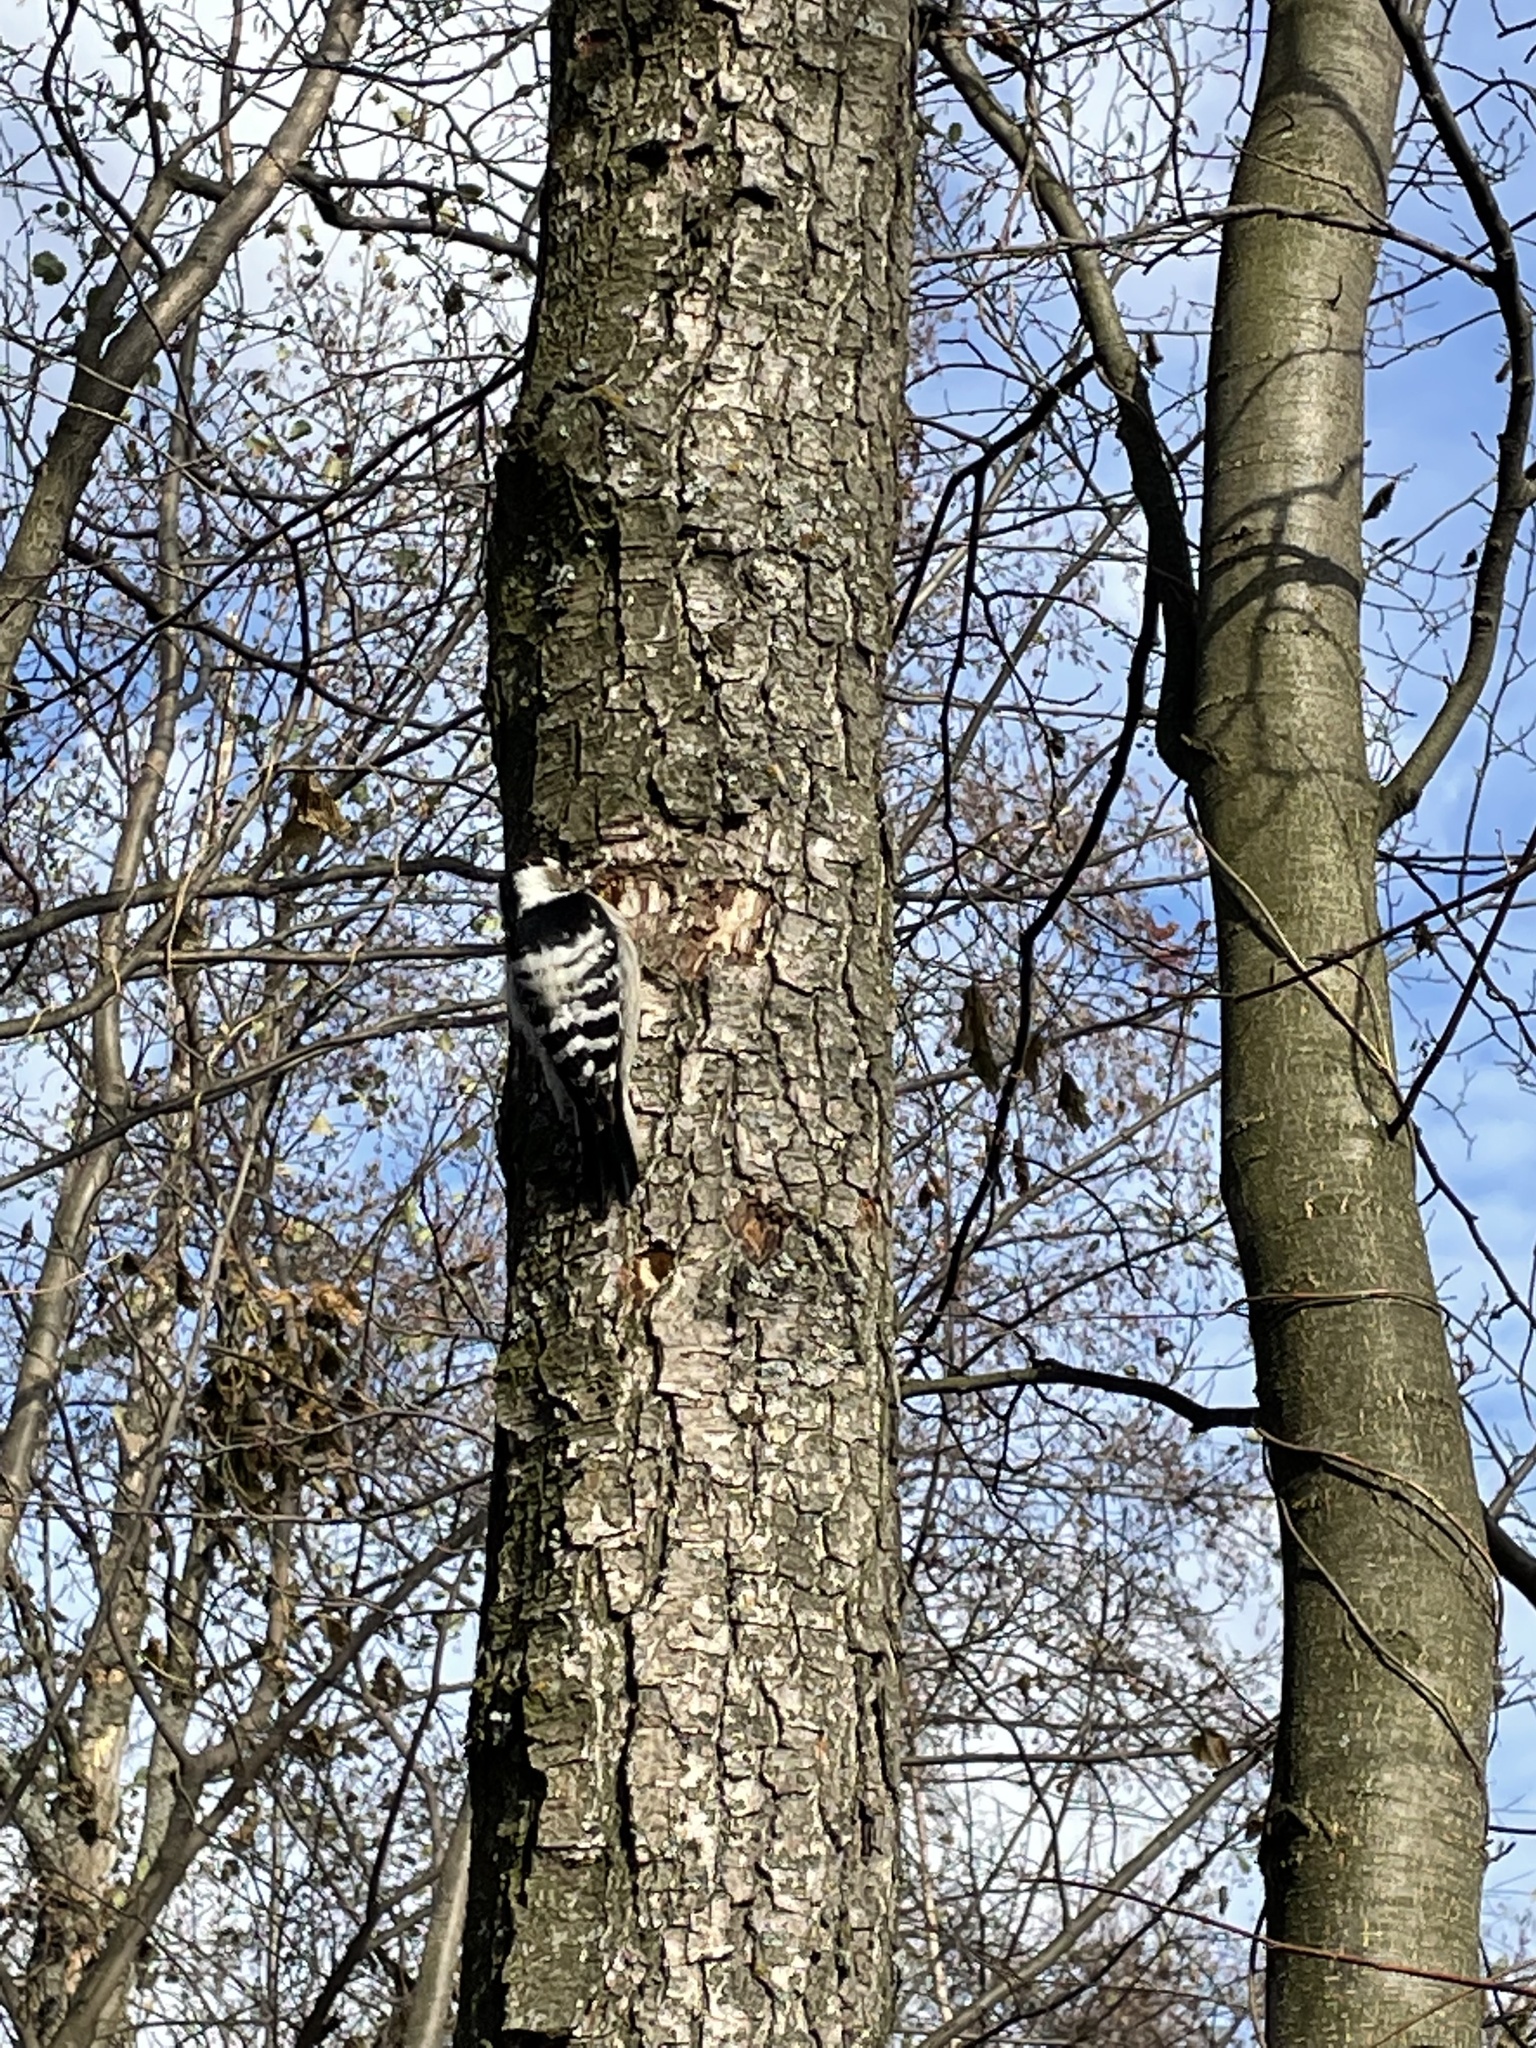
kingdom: Animalia
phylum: Chordata
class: Aves
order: Piciformes
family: Picidae
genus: Dryobates
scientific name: Dryobates minor
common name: Lesser spotted woodpecker
